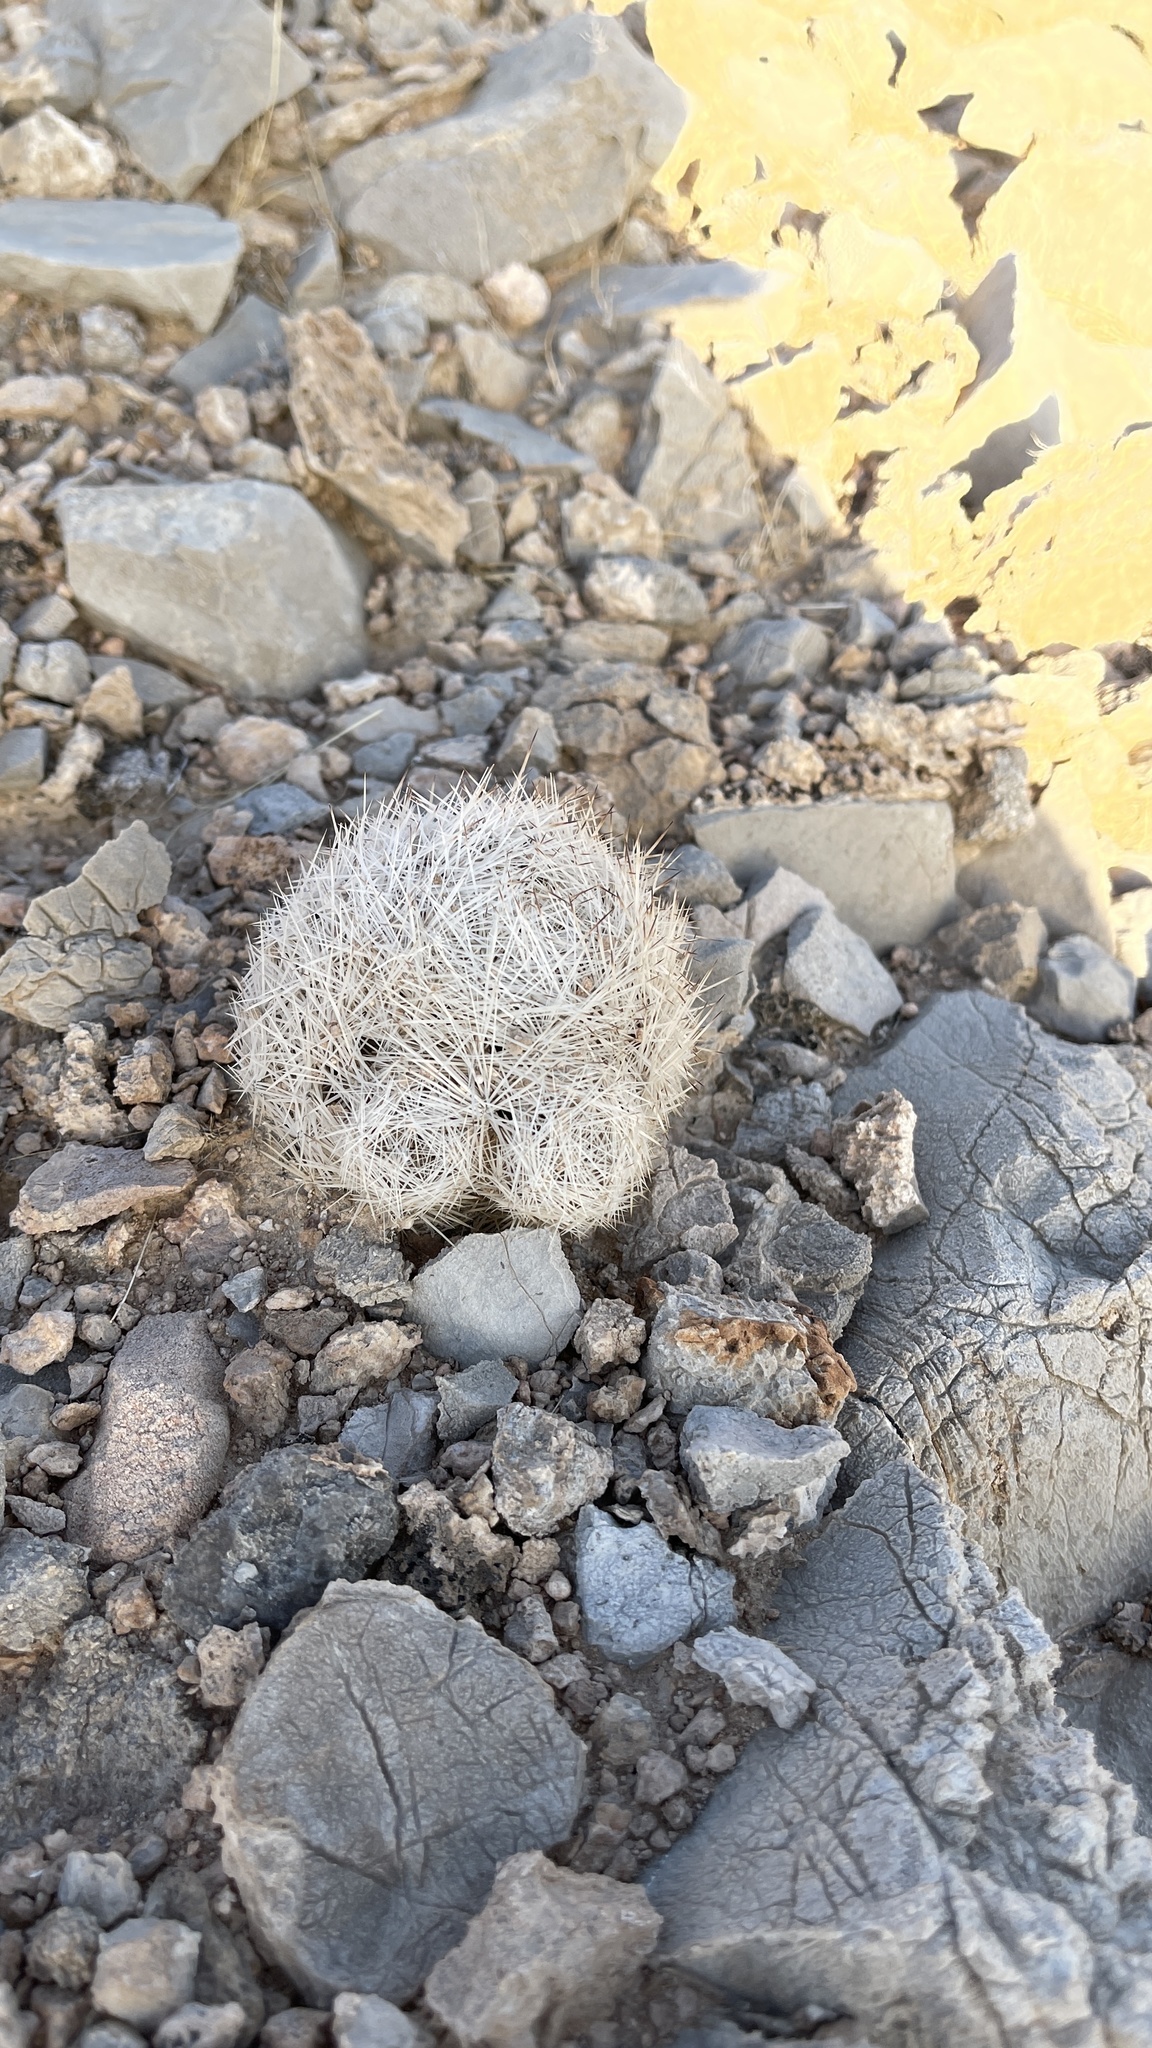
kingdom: Plantae
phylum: Tracheophyta
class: Magnoliopsida
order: Caryophyllales
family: Cactaceae
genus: Pelecyphora
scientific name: Pelecyphora dasyacantha
